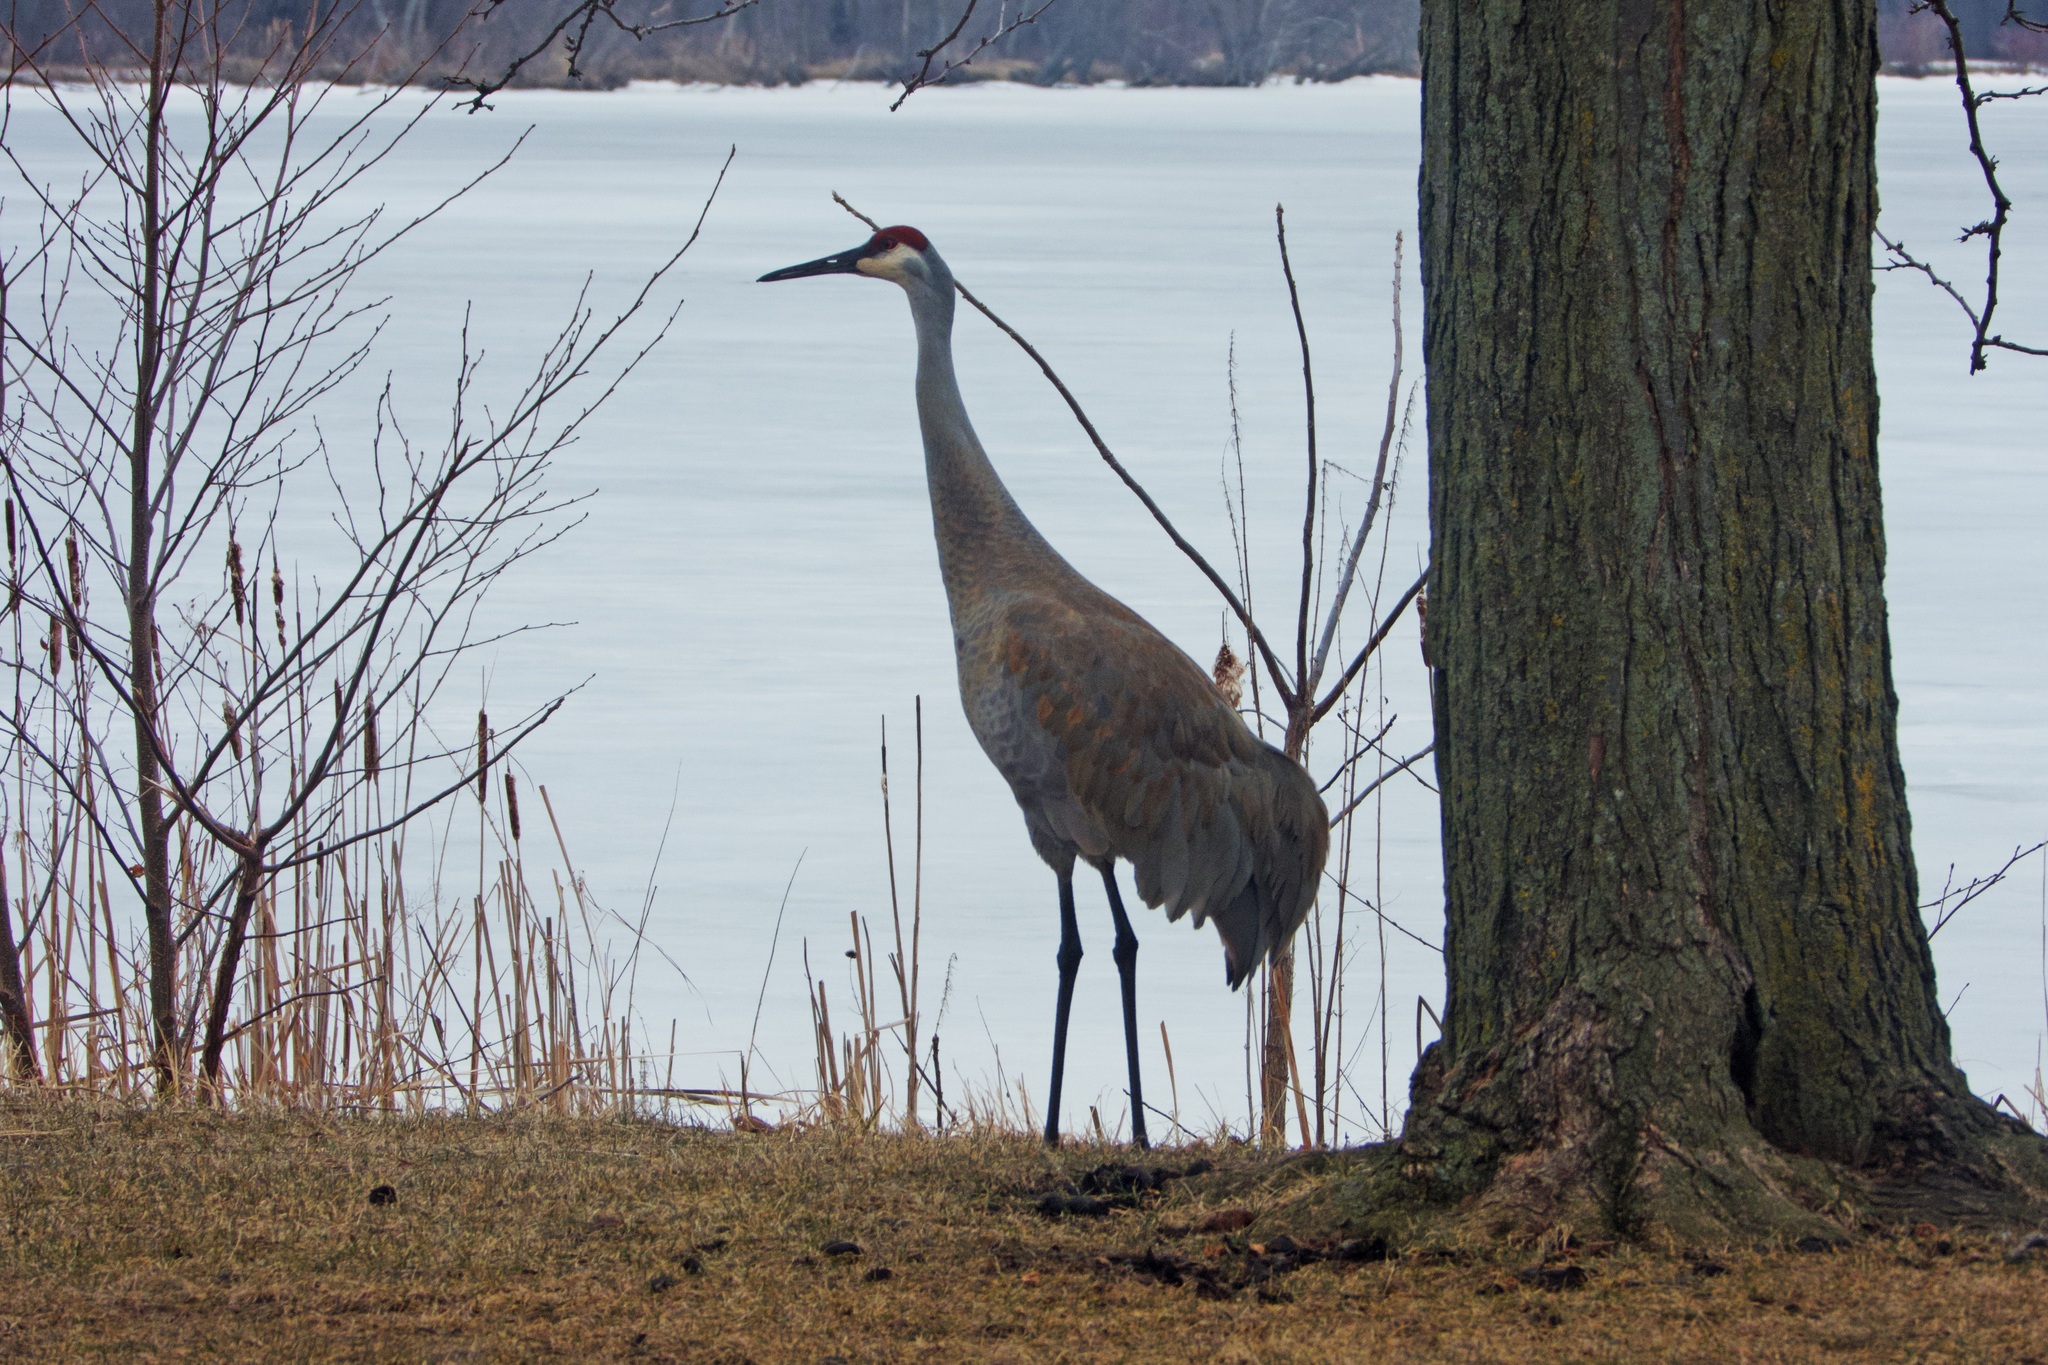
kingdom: Animalia
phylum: Chordata
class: Aves
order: Gruiformes
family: Gruidae
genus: Grus
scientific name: Grus canadensis
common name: Sandhill crane
